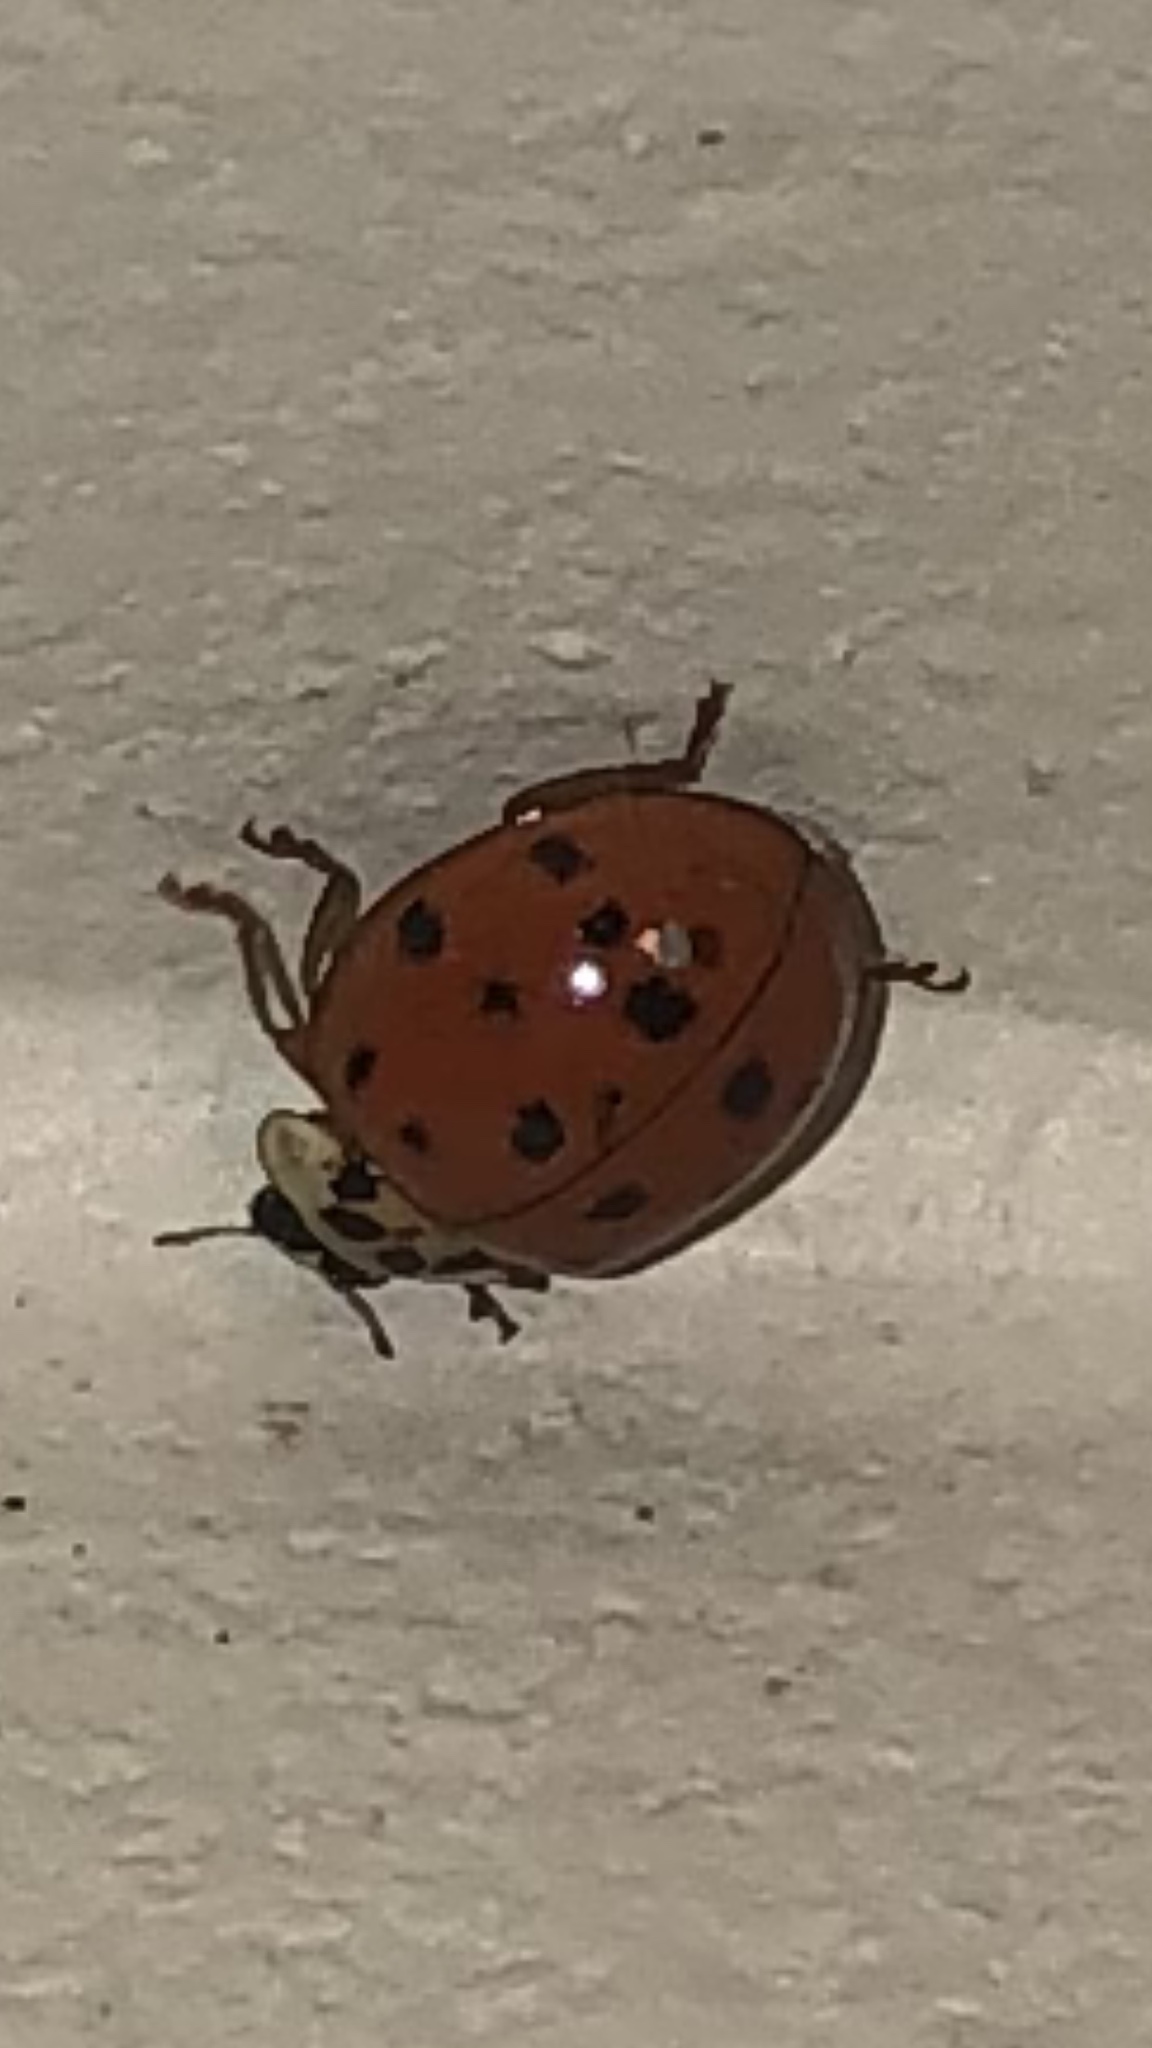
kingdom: Animalia
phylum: Arthropoda
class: Insecta
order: Coleoptera
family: Coccinellidae
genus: Harmonia
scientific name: Harmonia axyridis
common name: Harlequin ladybird
